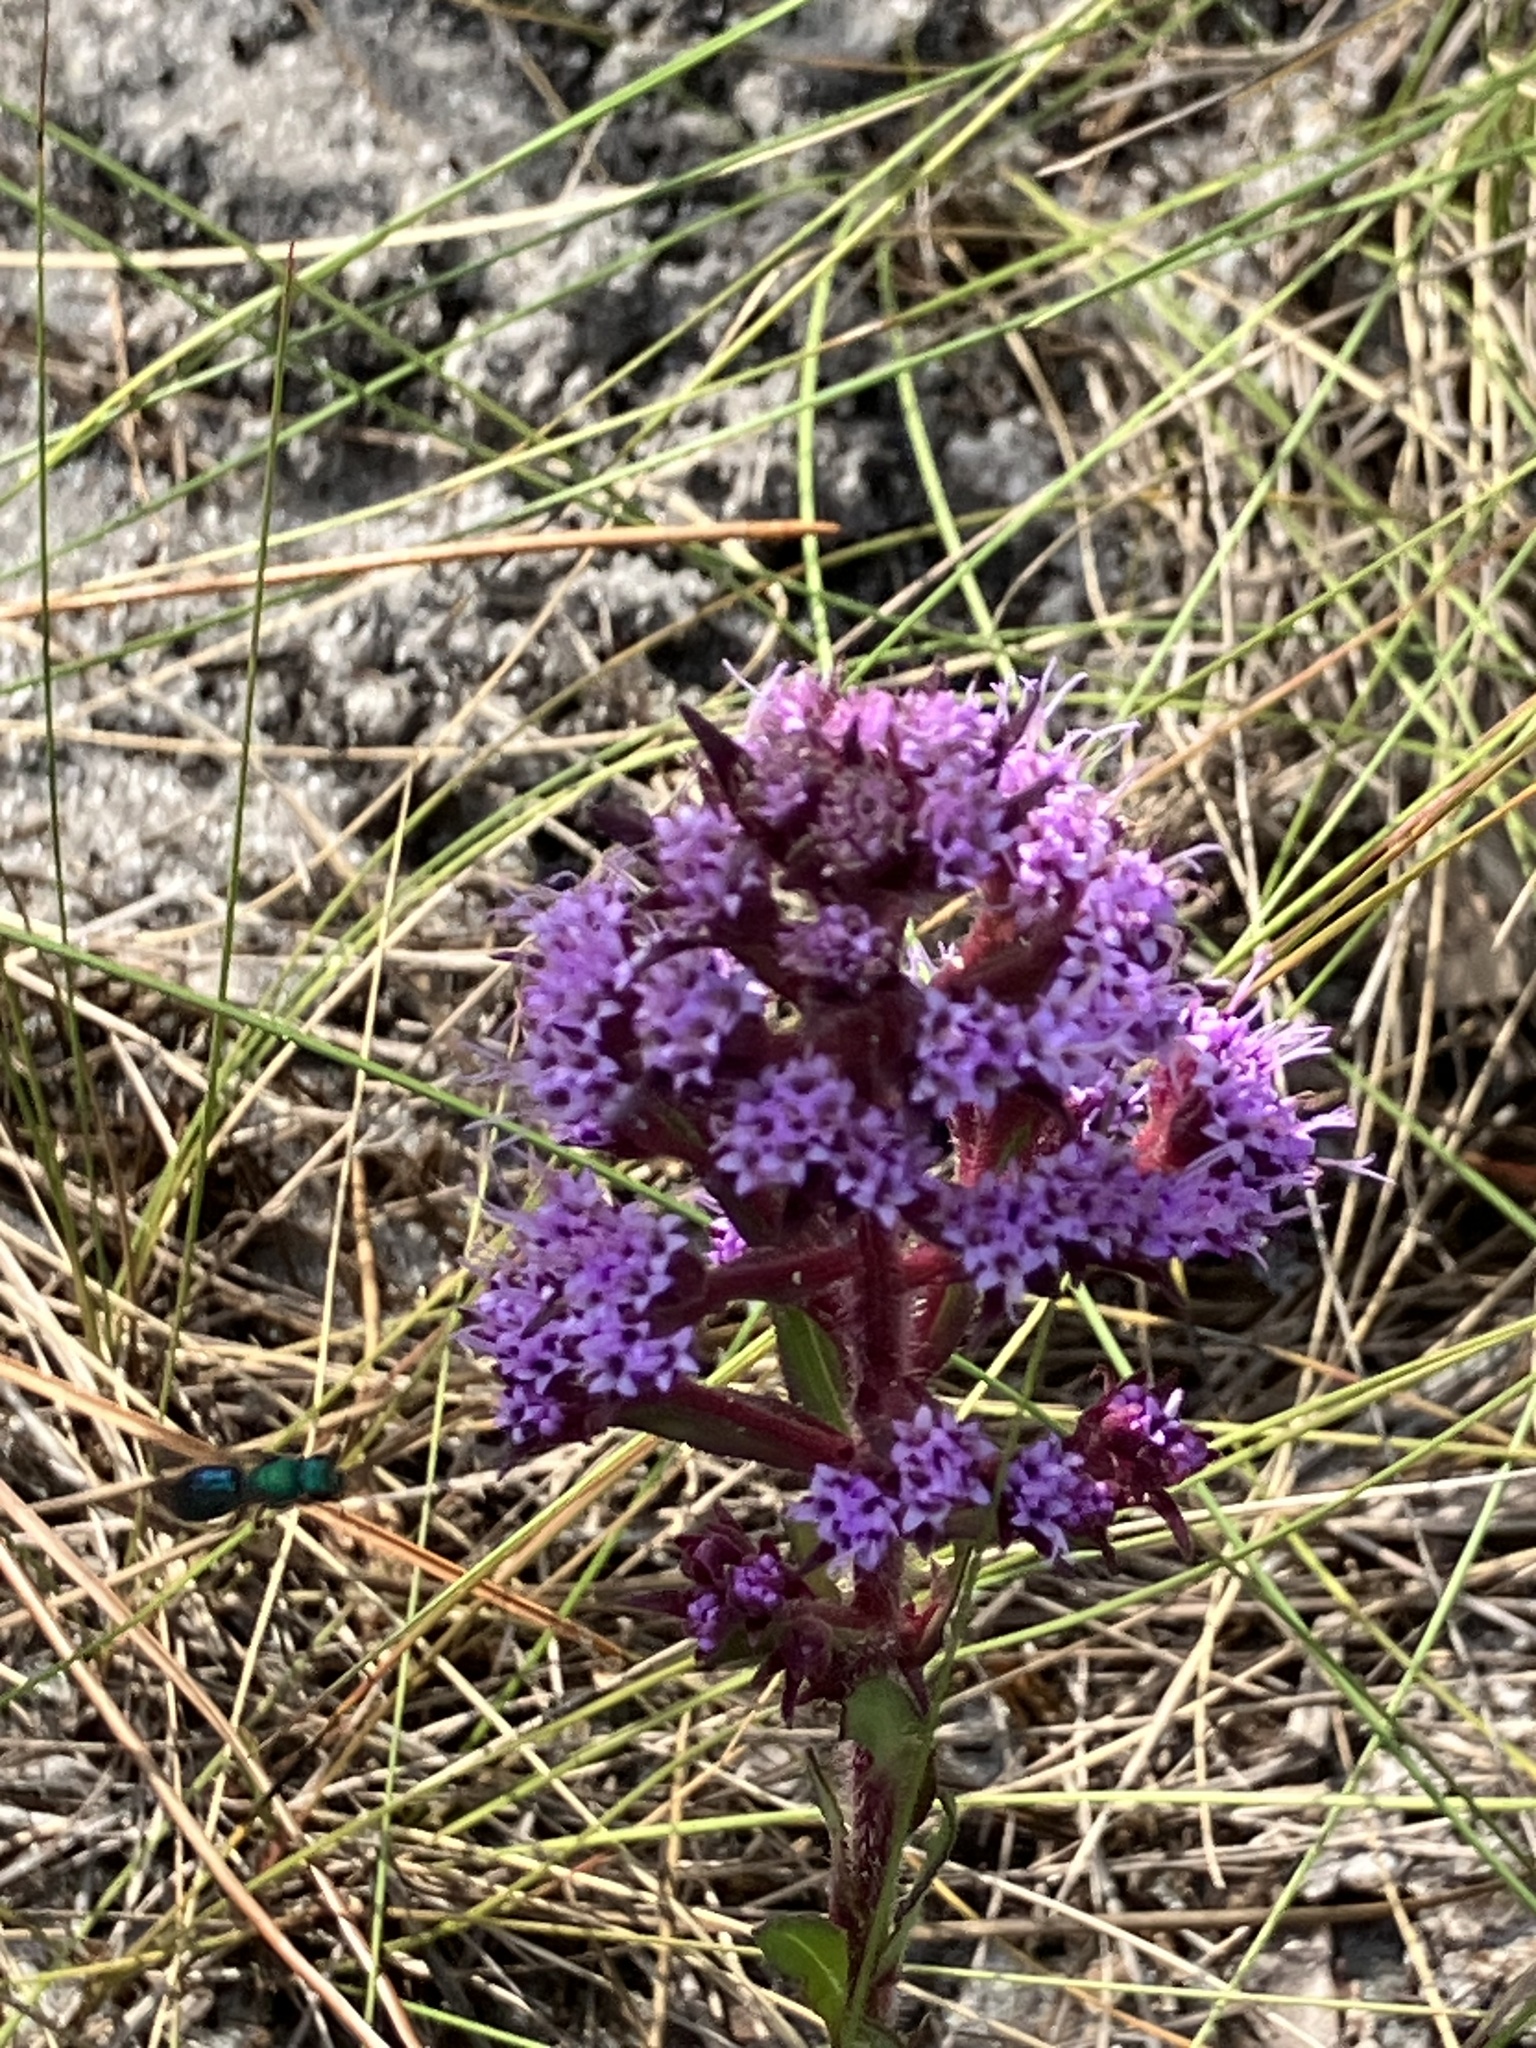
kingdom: Plantae
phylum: Tracheophyta
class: Magnoliopsida
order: Asterales
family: Asteraceae
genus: Carphephorus
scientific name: Carphephorus paniculatus
